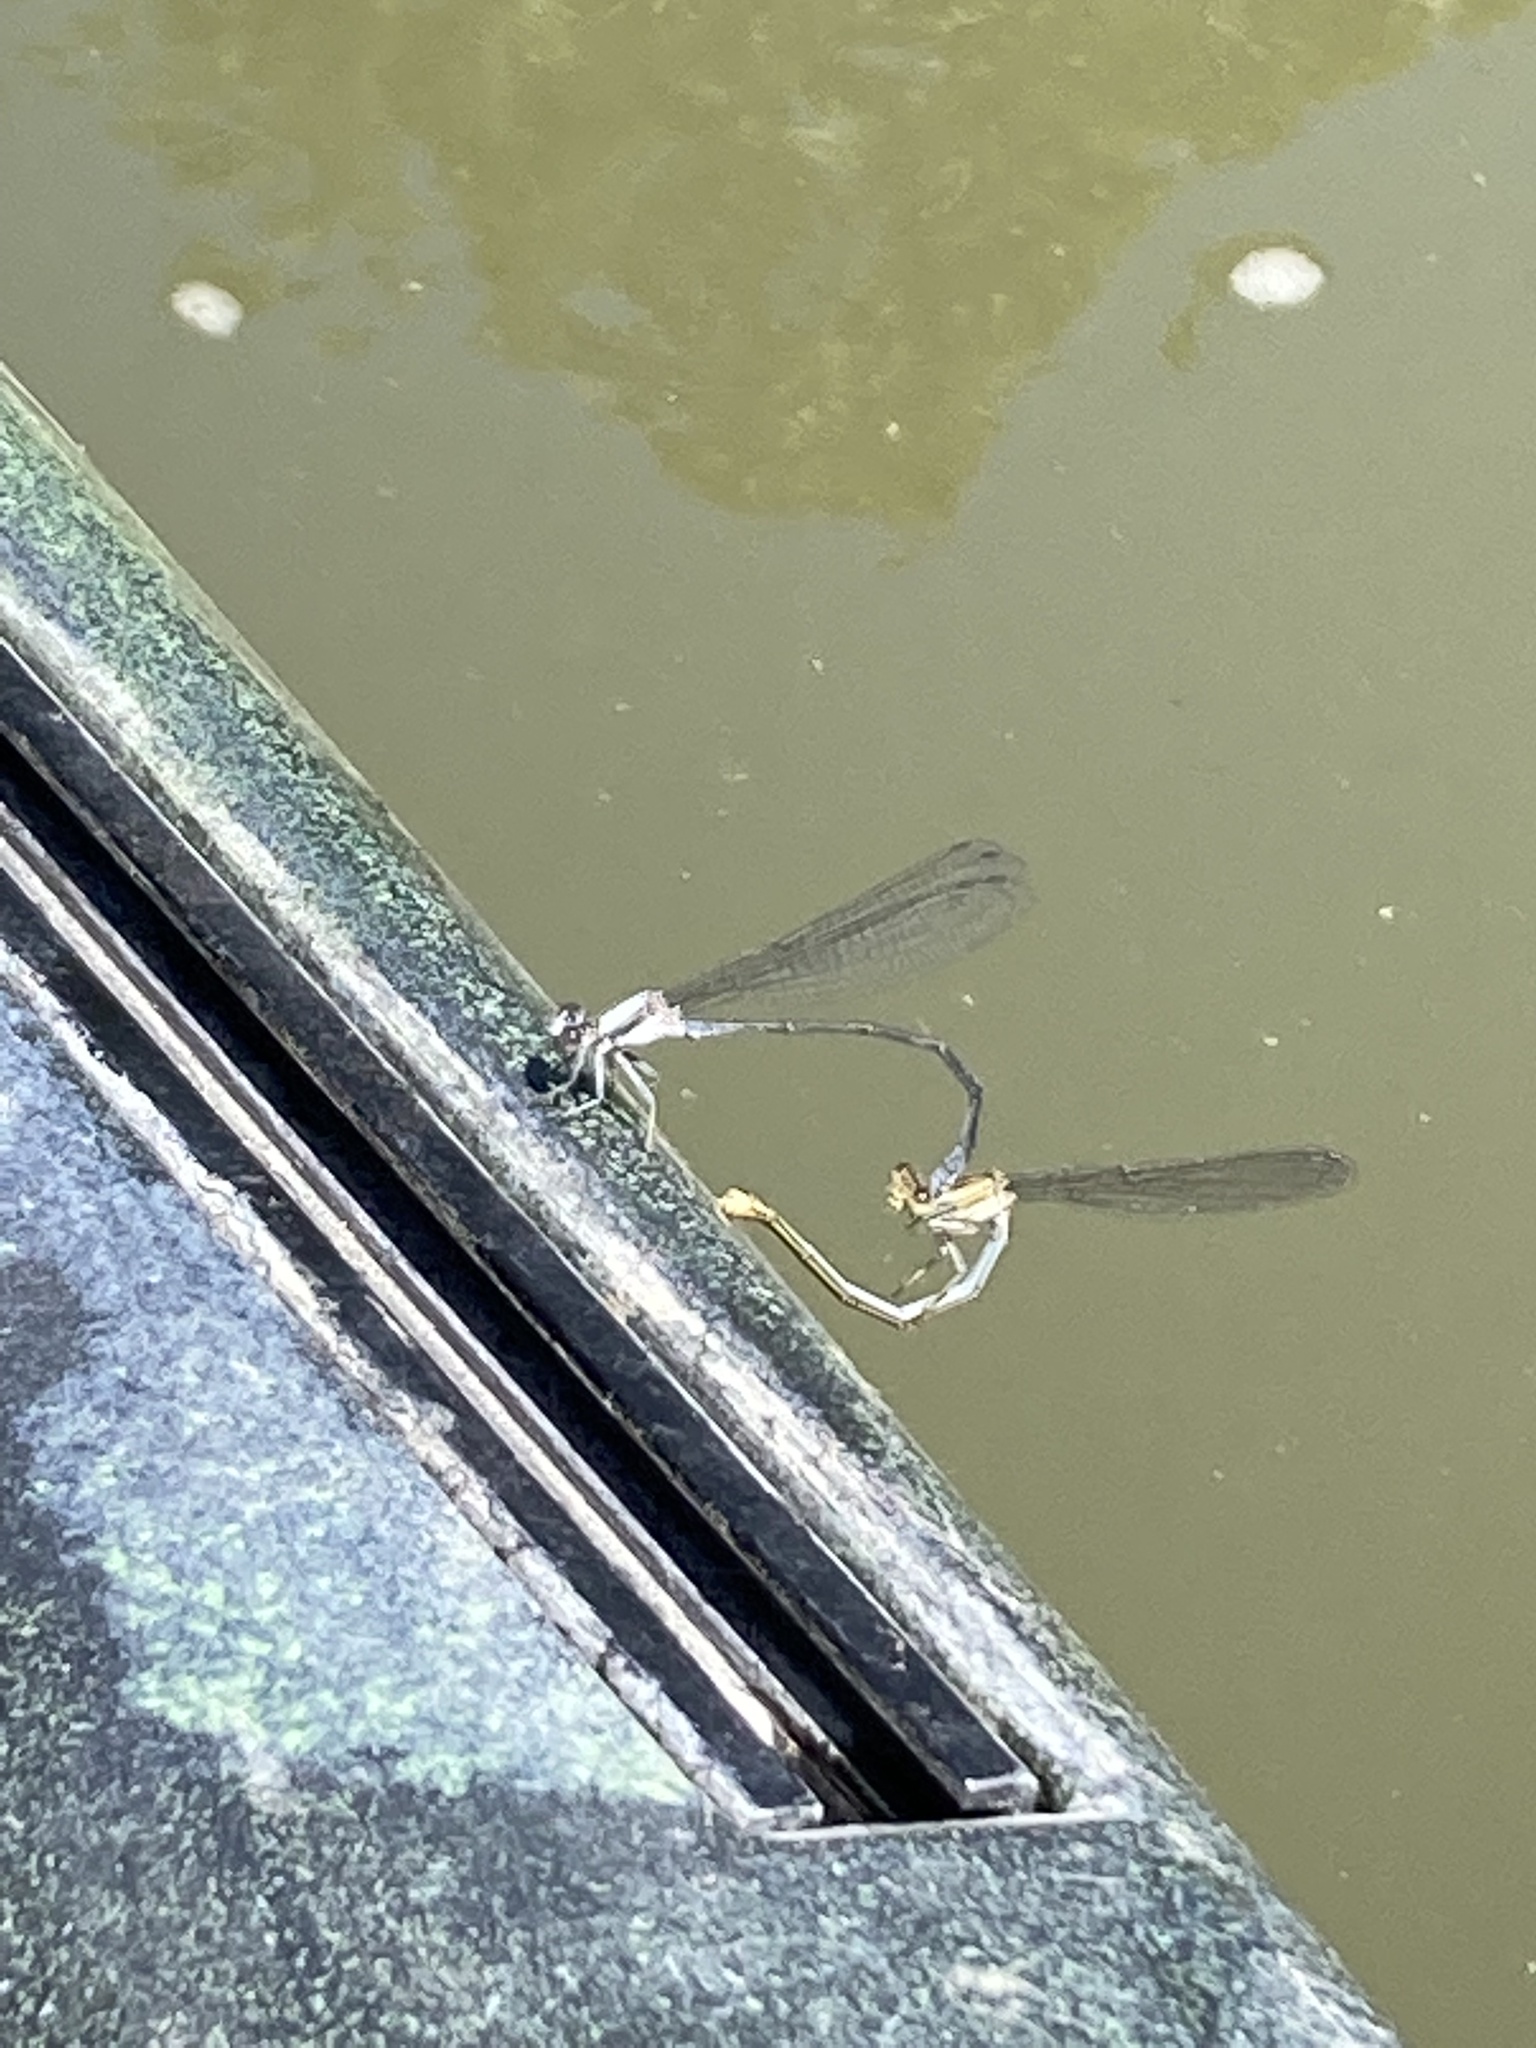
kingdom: Animalia
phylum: Arthropoda
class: Insecta
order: Odonata
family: Coenagrionidae
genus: Argia
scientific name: Argia moesta
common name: Powdered dancer
